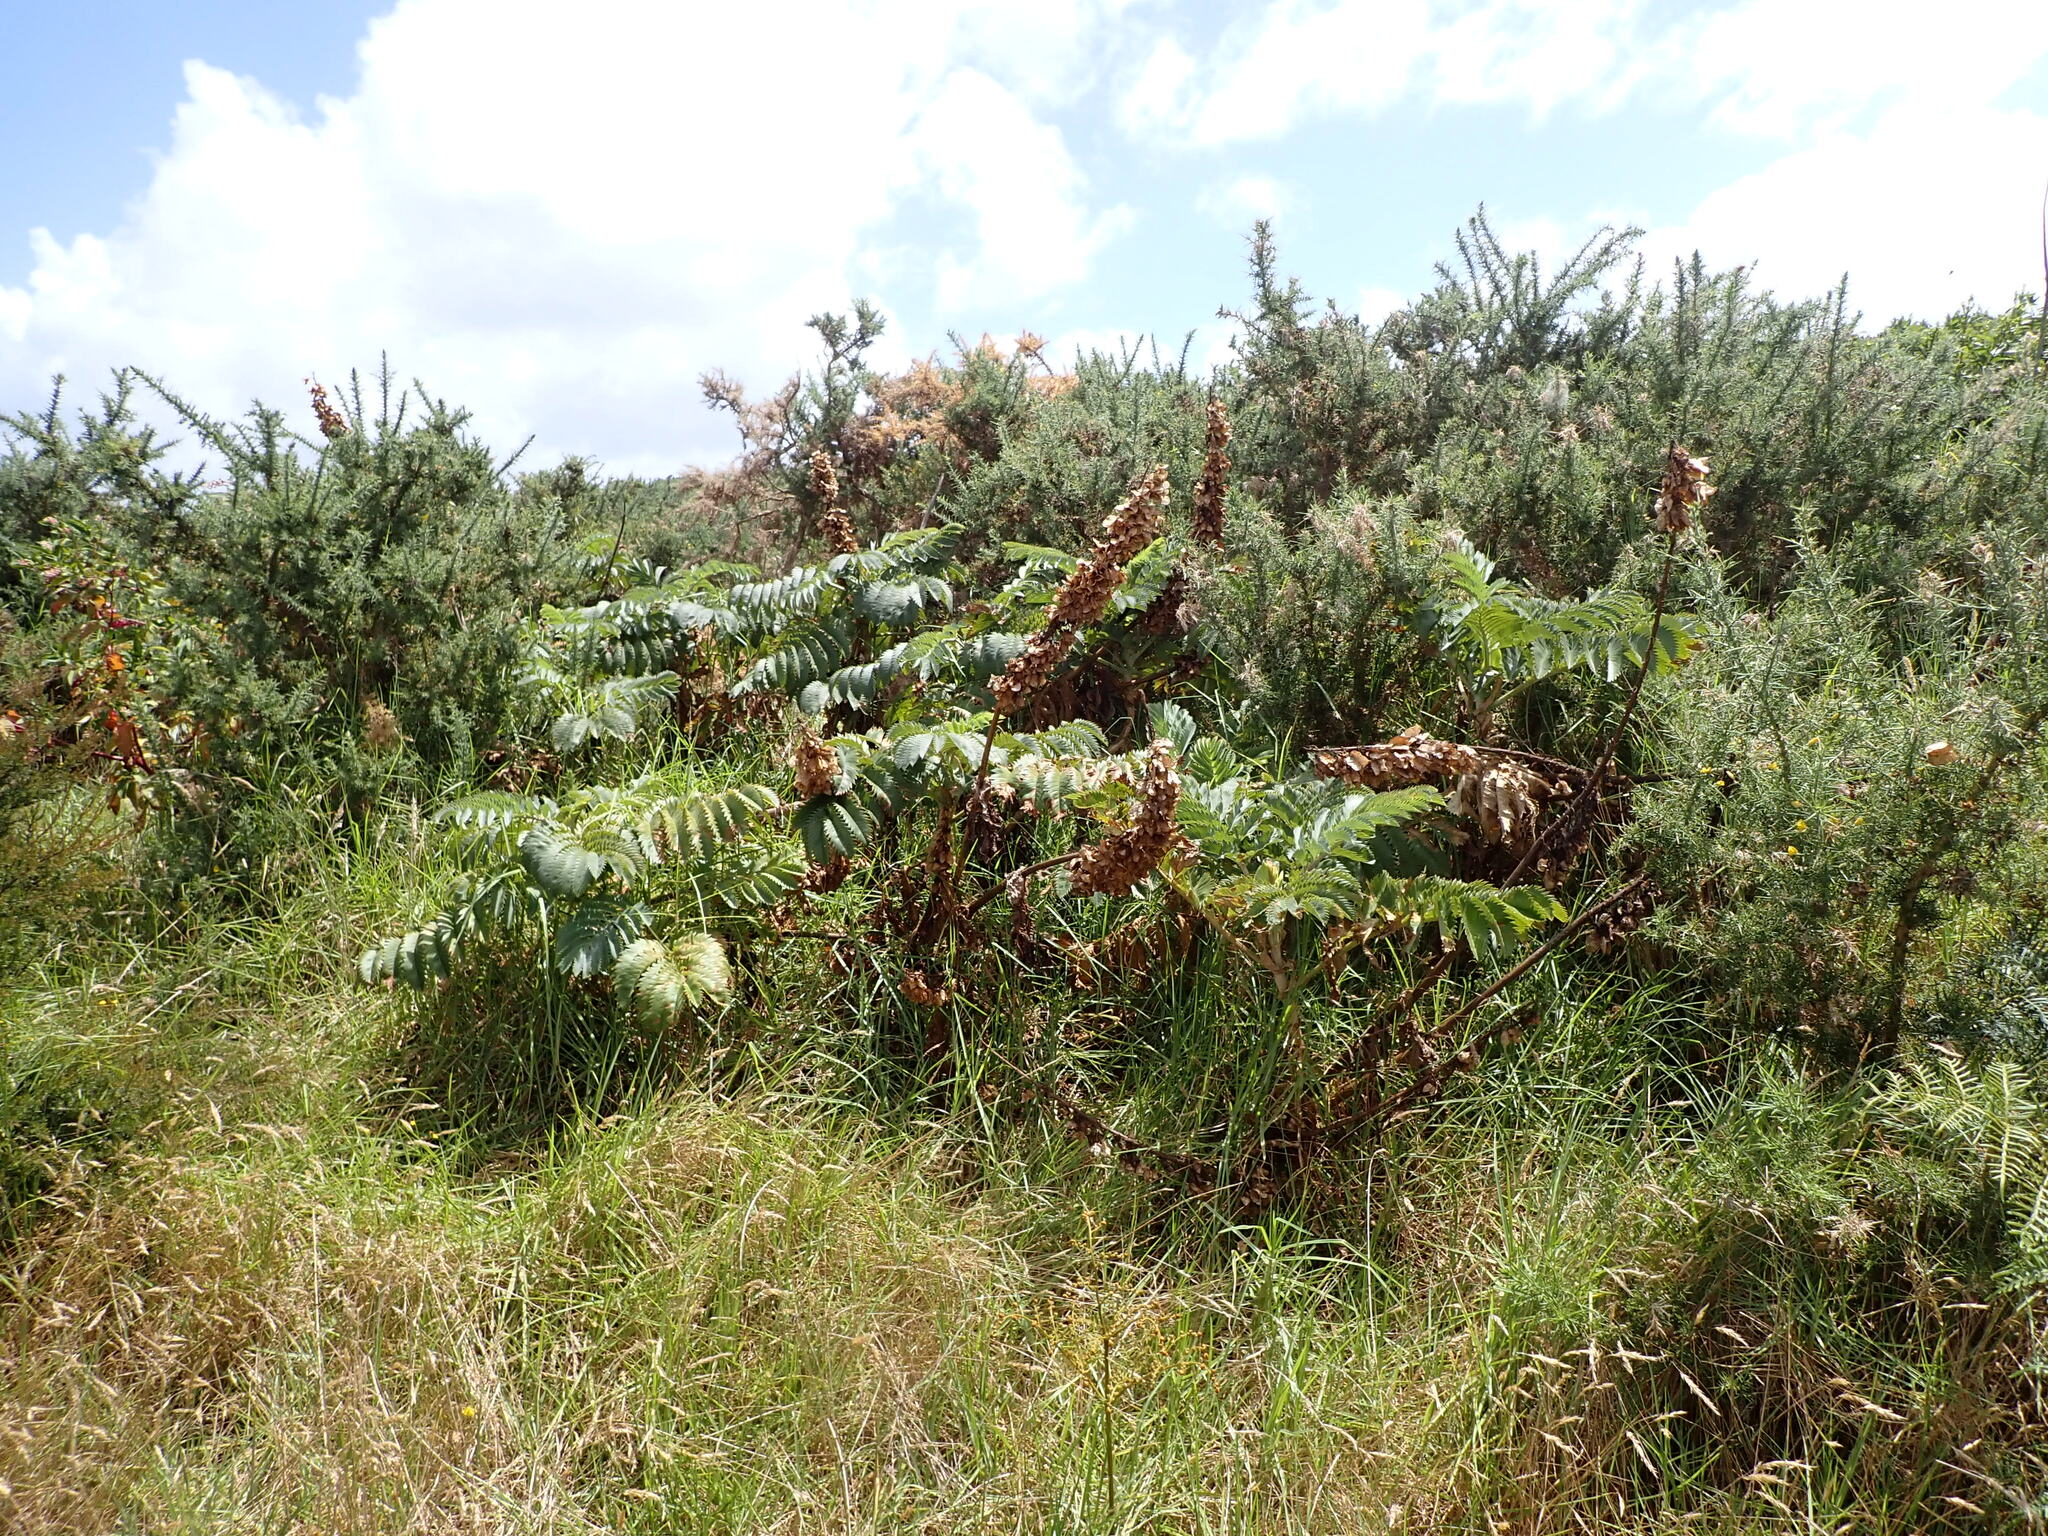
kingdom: Plantae
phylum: Tracheophyta
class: Magnoliopsida
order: Geraniales
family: Melianthaceae
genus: Melianthus
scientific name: Melianthus major
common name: Honey-flower
